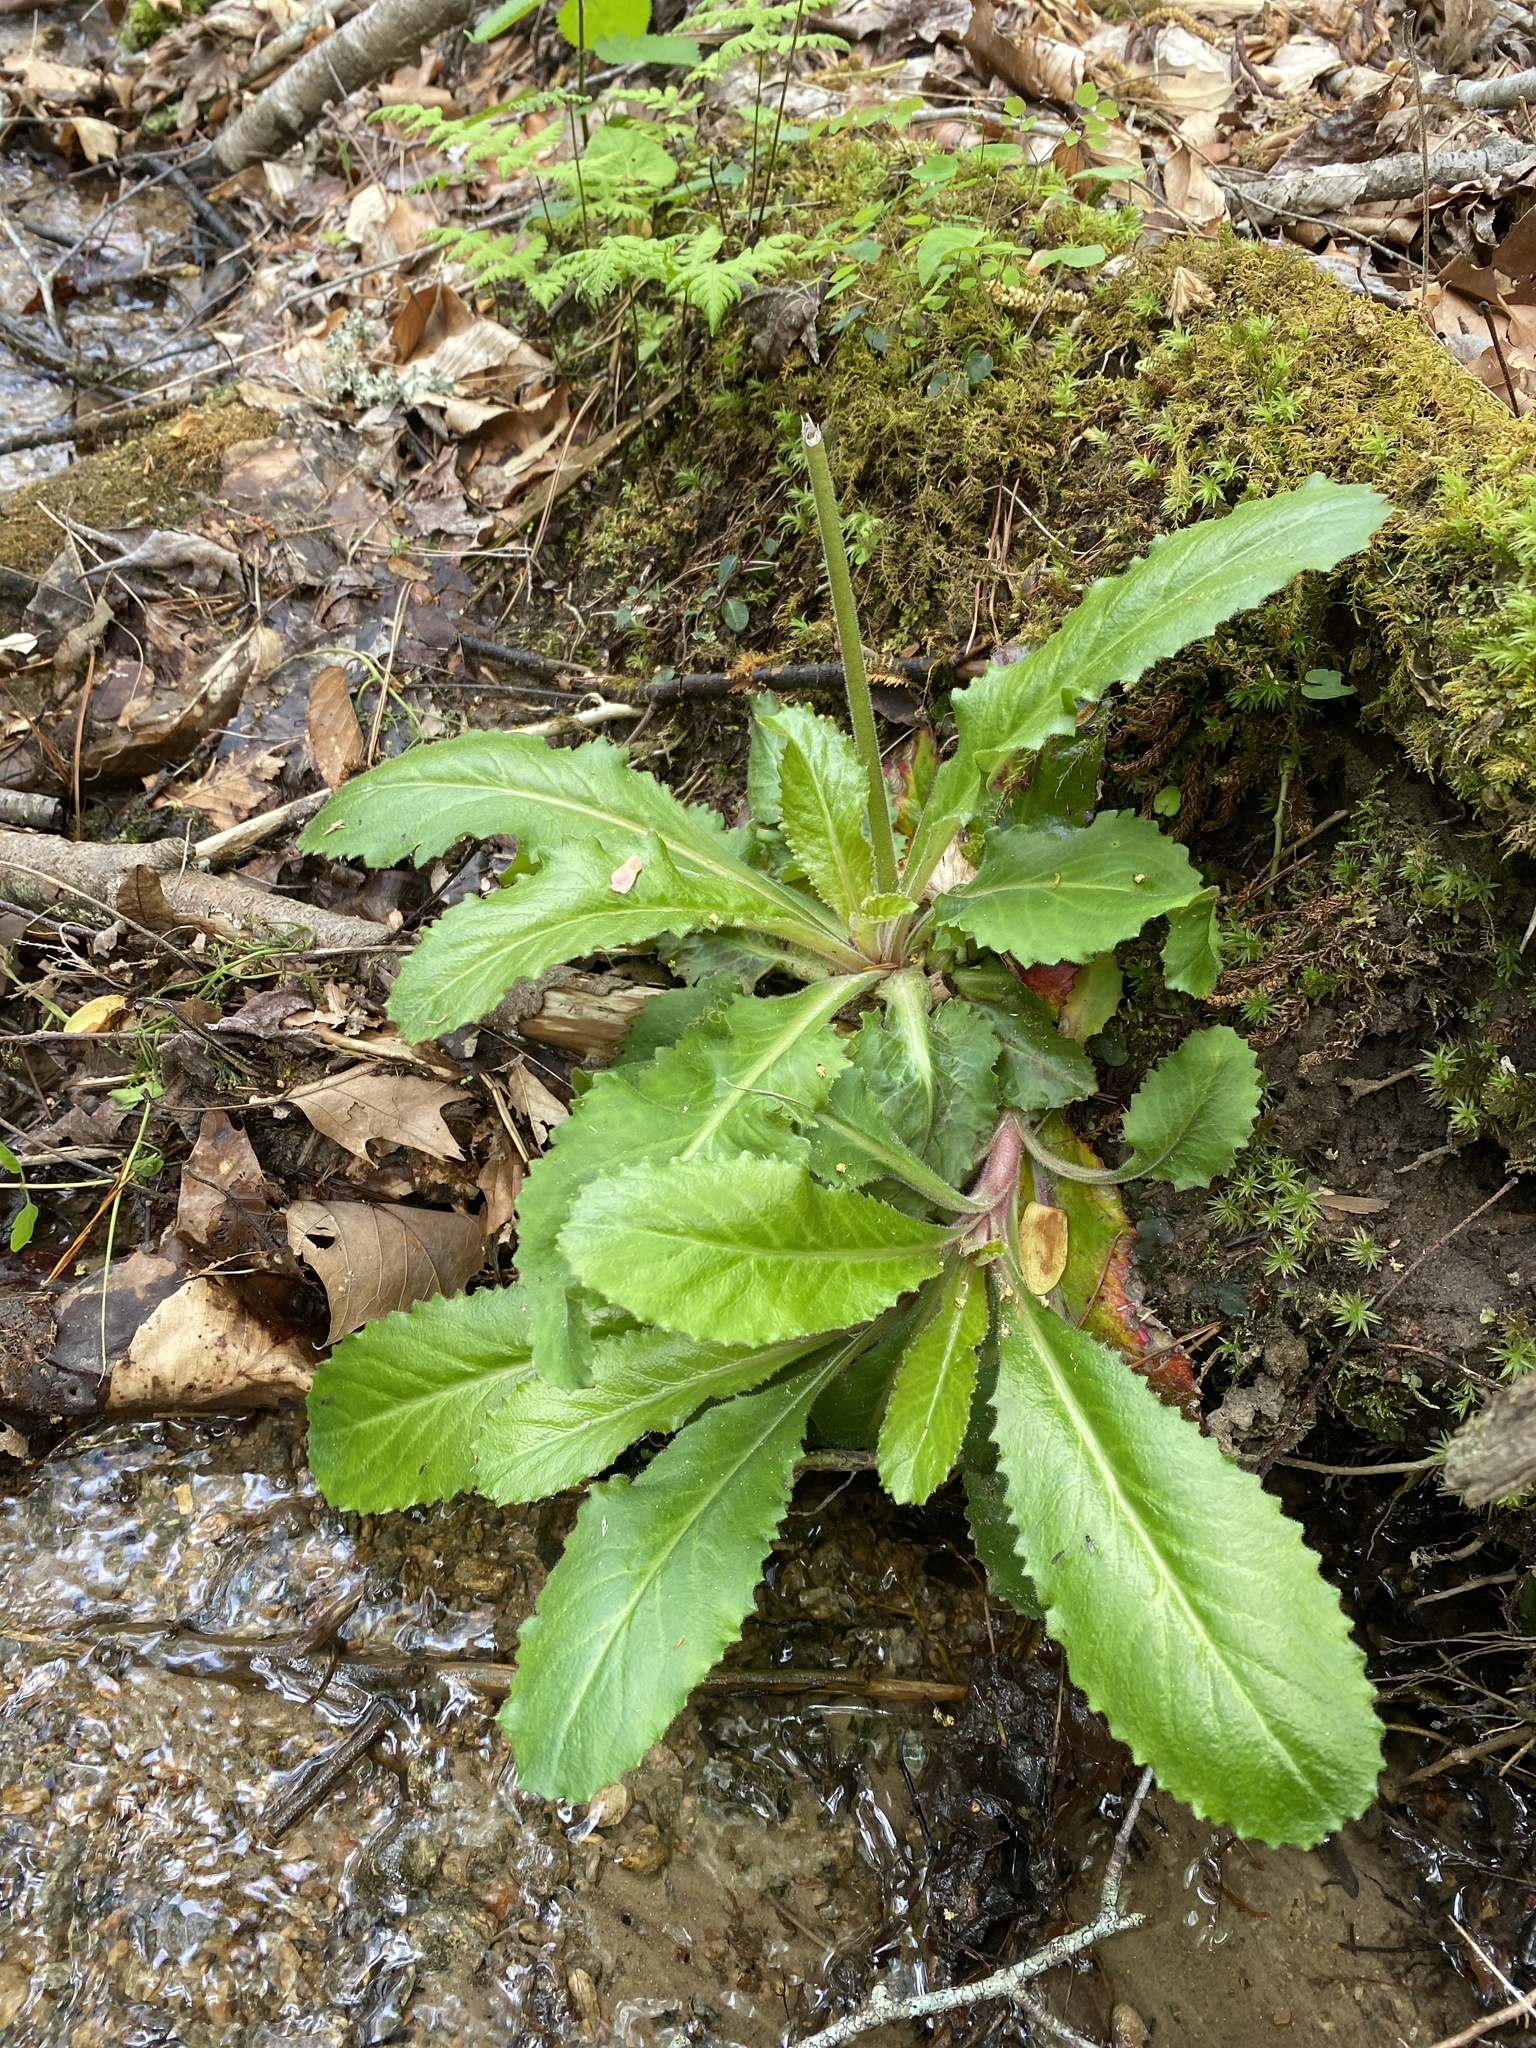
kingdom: Plantae
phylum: Tracheophyta
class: Magnoliopsida
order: Saxifragales
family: Saxifragaceae
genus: Micranthes
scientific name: Micranthes micranthidifolia
